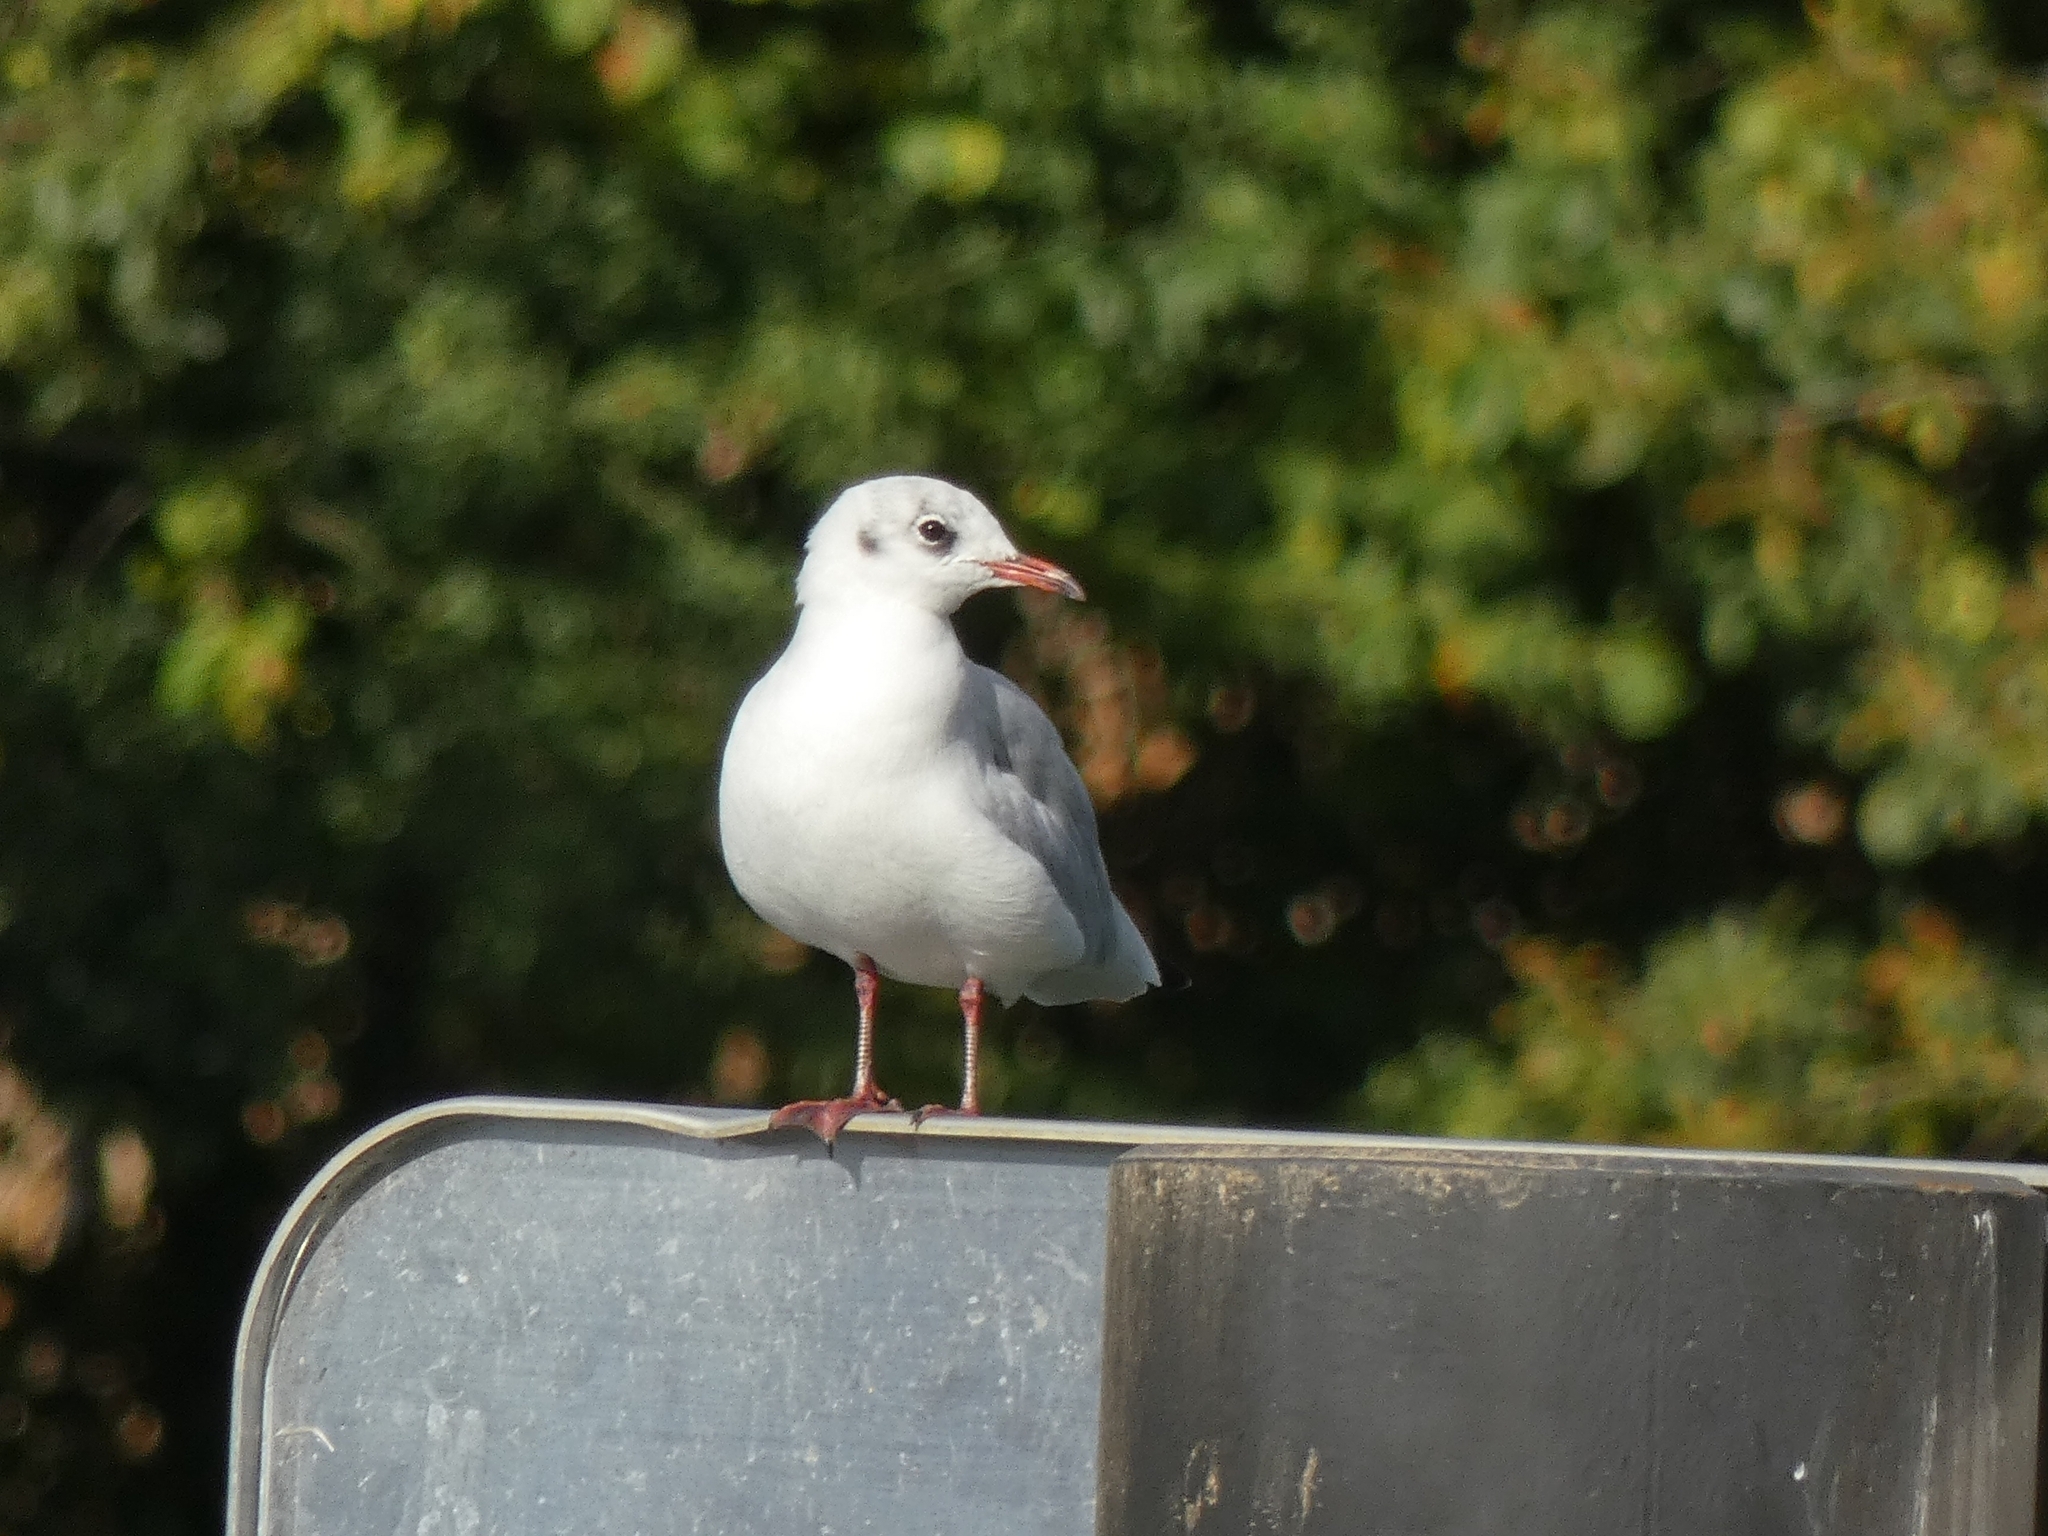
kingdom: Animalia
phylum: Chordata
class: Aves
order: Charadriiformes
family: Laridae
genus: Chroicocephalus
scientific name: Chroicocephalus ridibundus
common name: Black-headed gull
